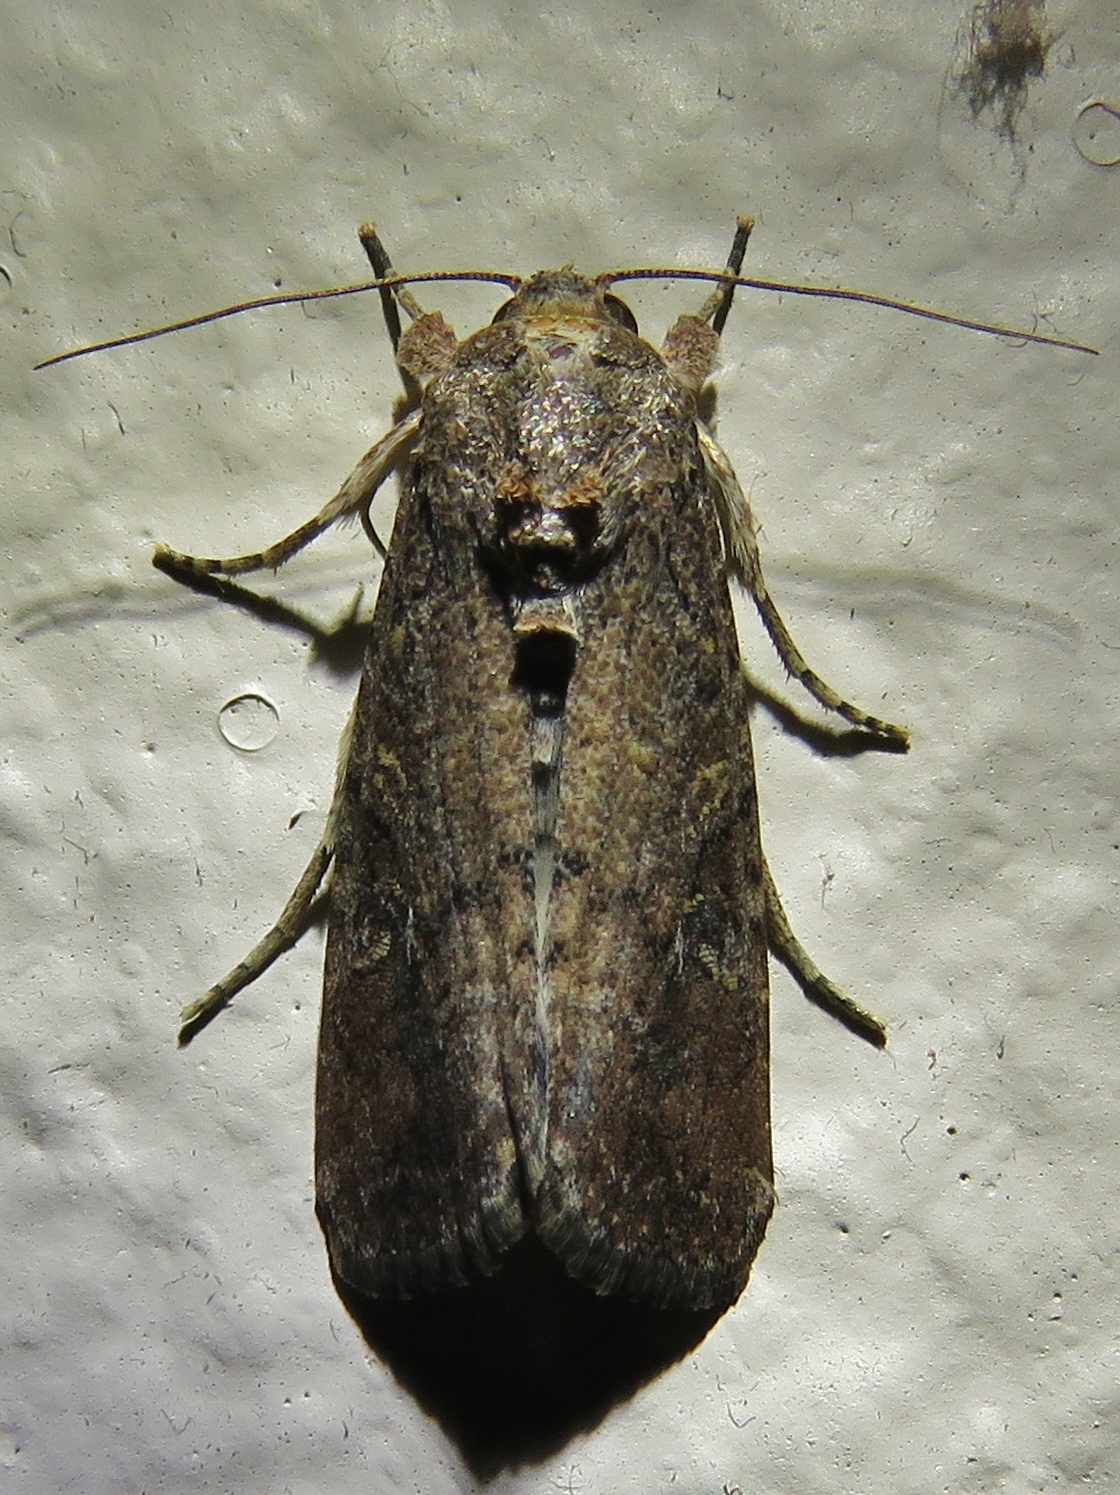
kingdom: Animalia
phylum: Arthropoda
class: Insecta
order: Lepidoptera
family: Noctuidae
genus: Spodoptera
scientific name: Spodoptera frugiperda
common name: Fall armyworm
